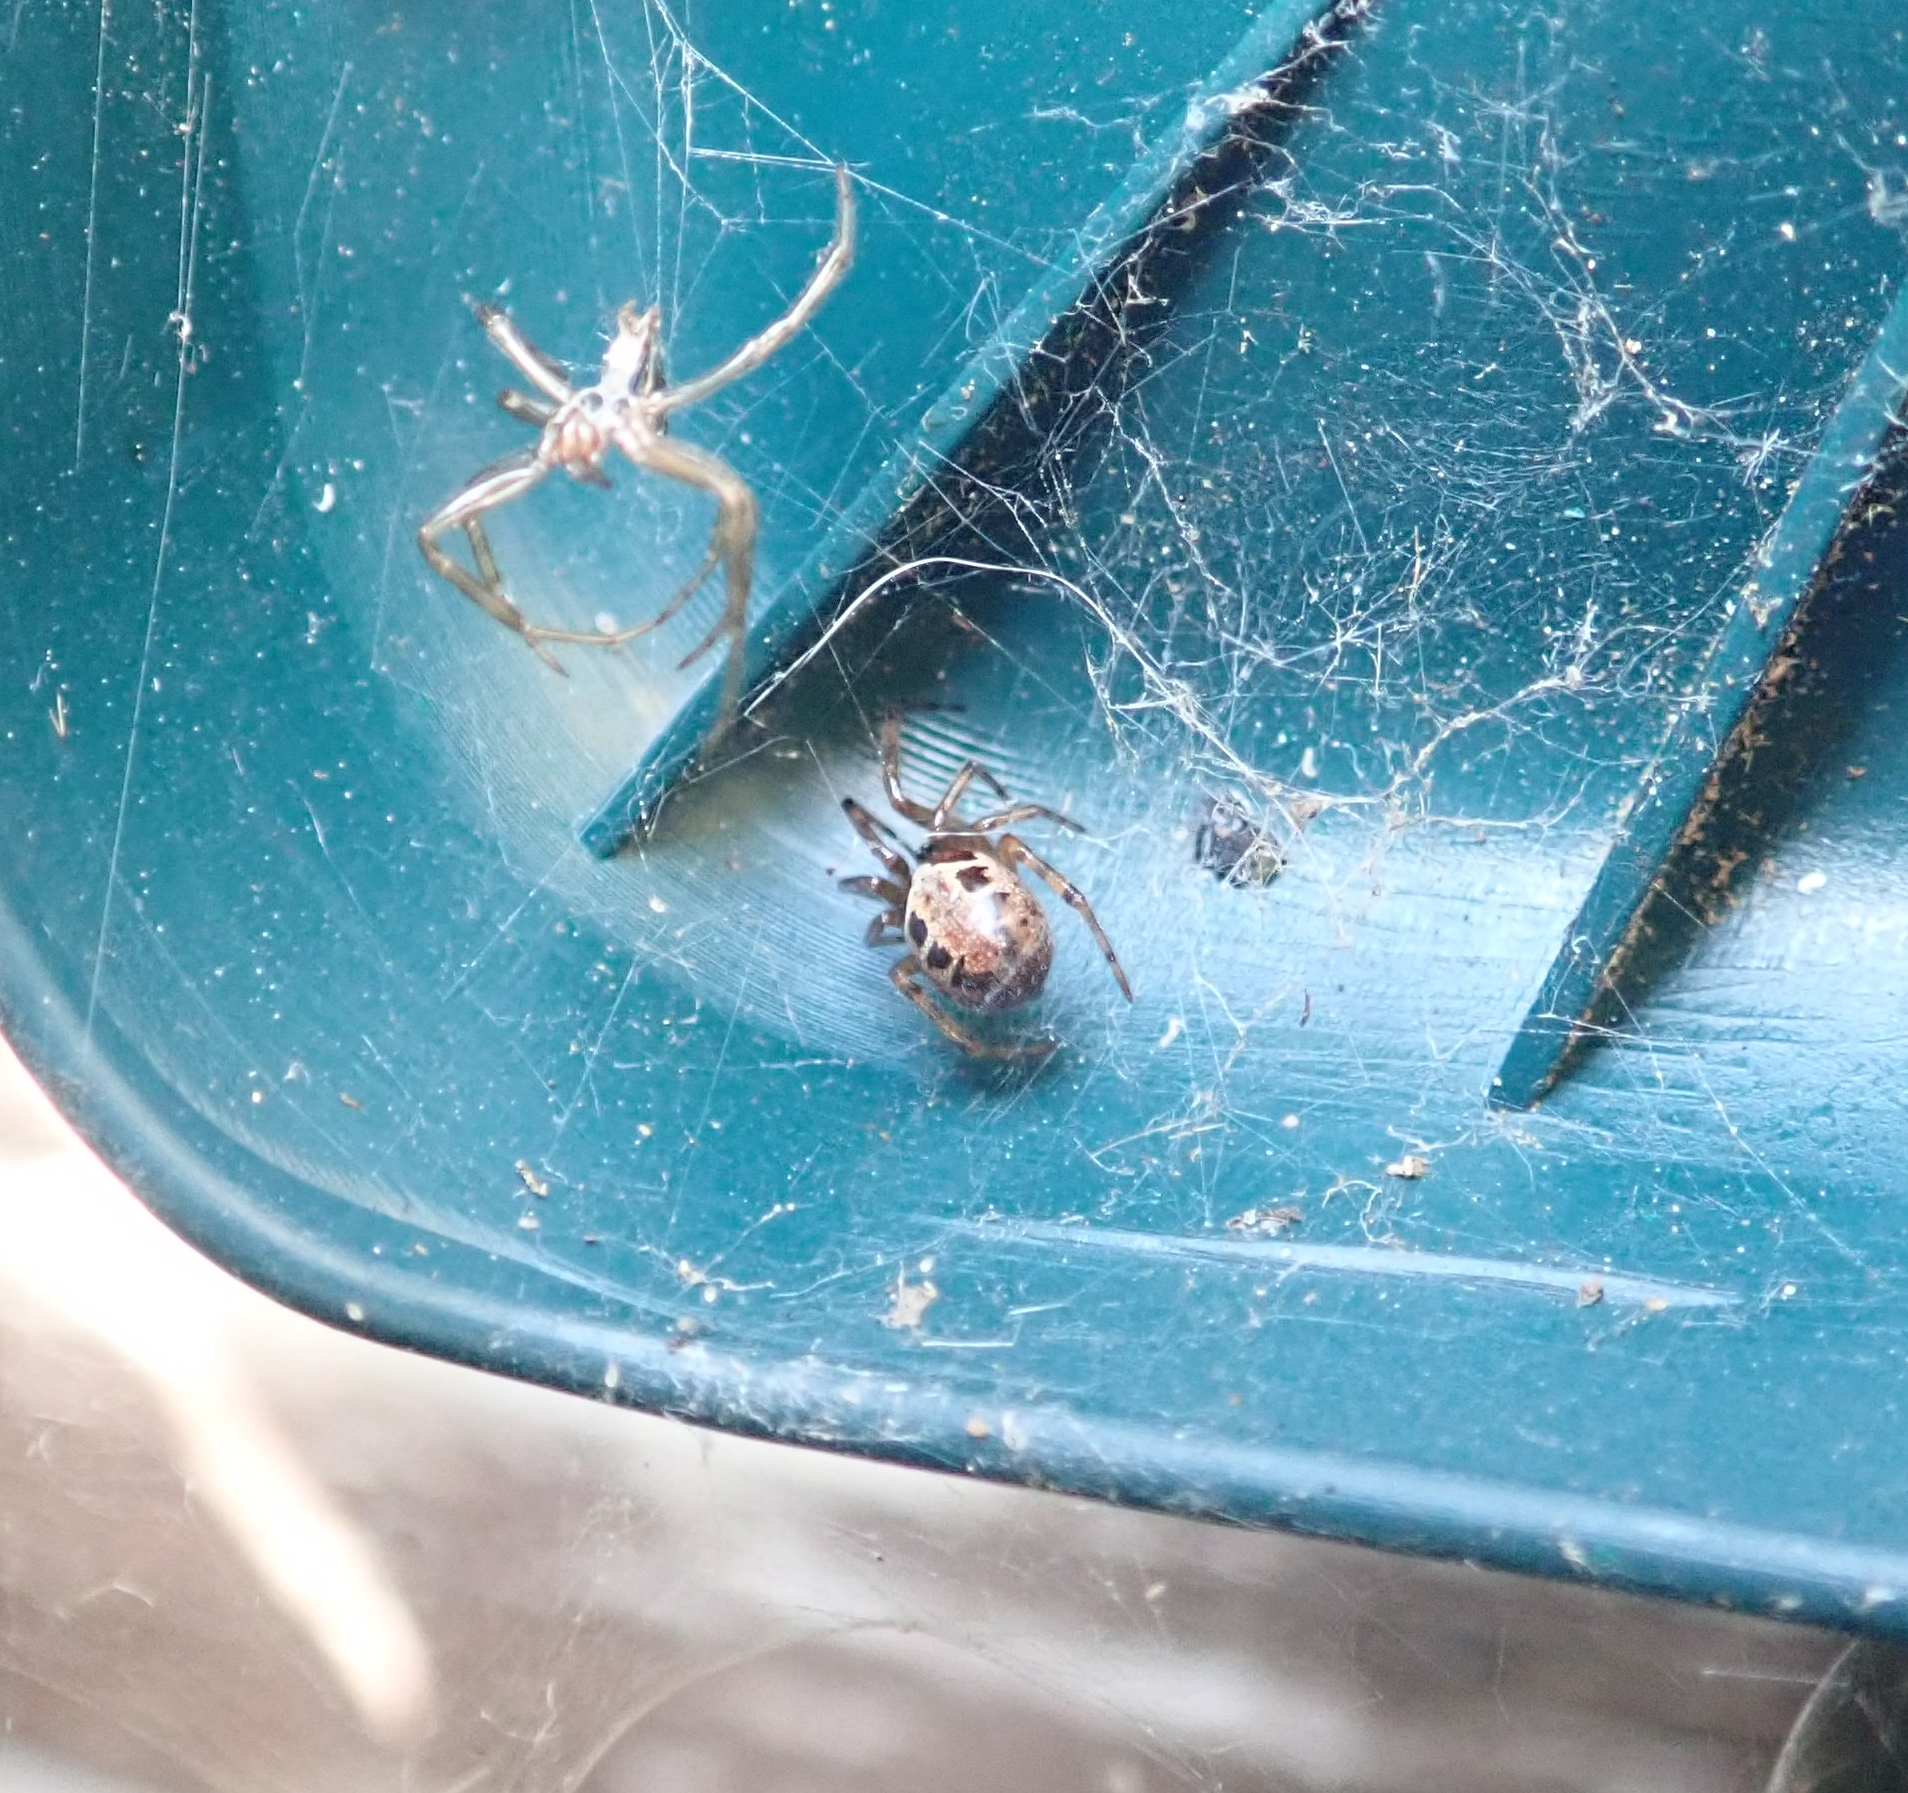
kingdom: Animalia
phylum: Arthropoda
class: Arachnida
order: Araneae
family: Theridiidae
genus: Steatoda
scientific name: Steatoda nobilis
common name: Cobweb weaver
